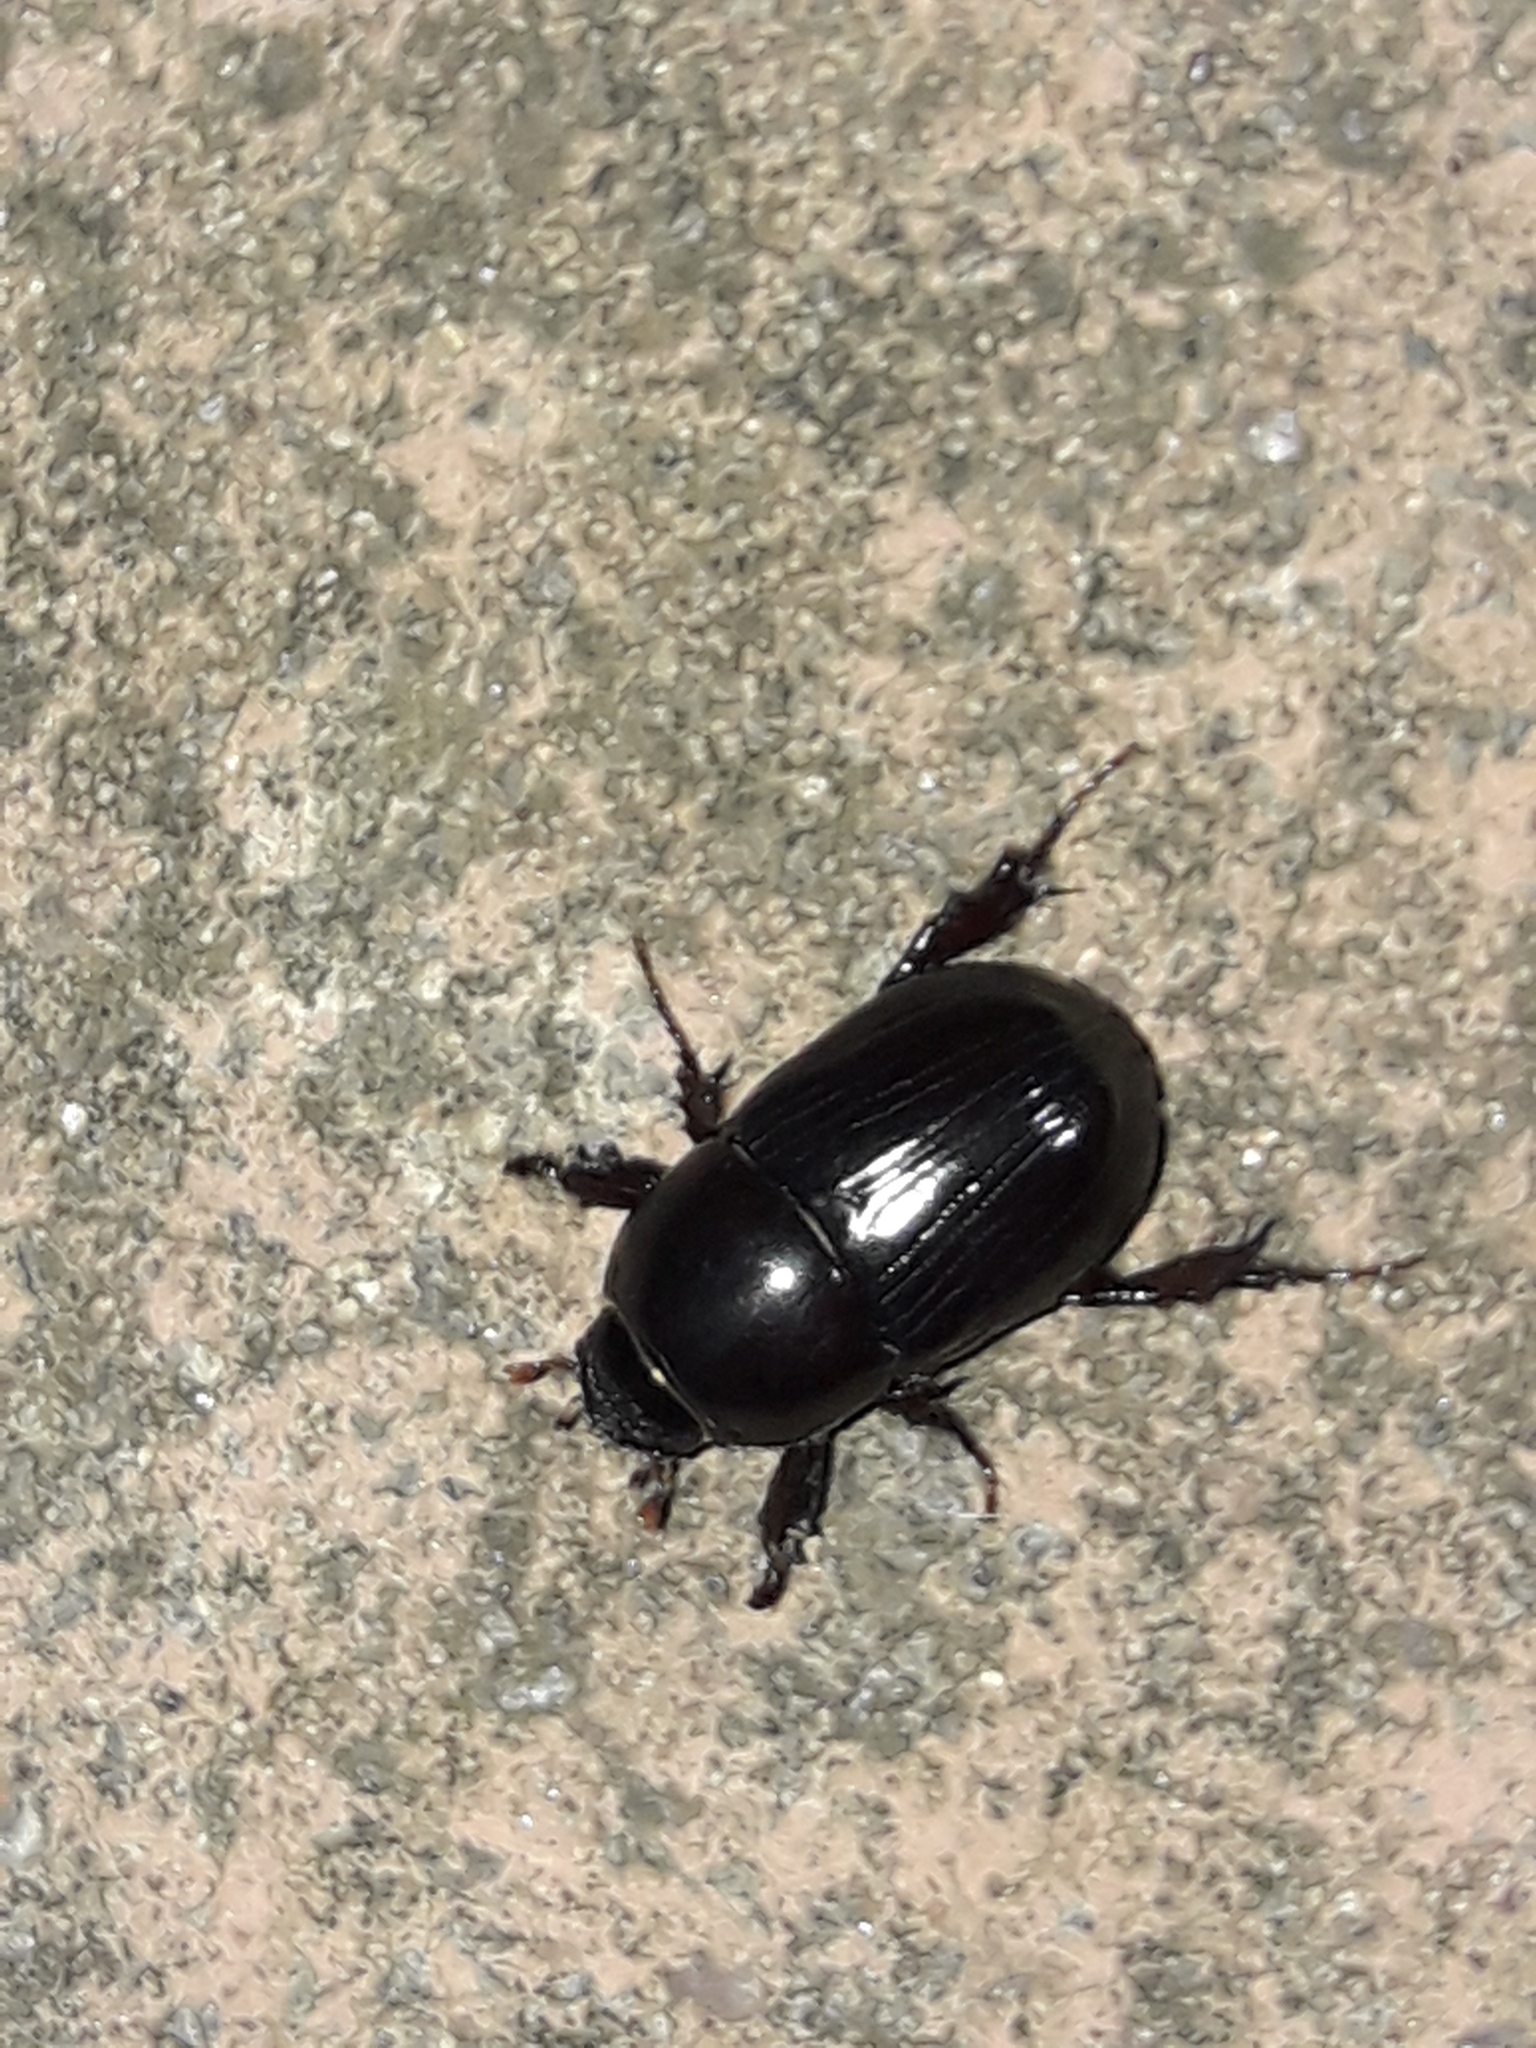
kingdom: Animalia
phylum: Arthropoda
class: Insecta
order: Coleoptera
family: Scarabaeidae
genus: Heteronychus
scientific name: Heteronychus arator
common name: African black beetle
